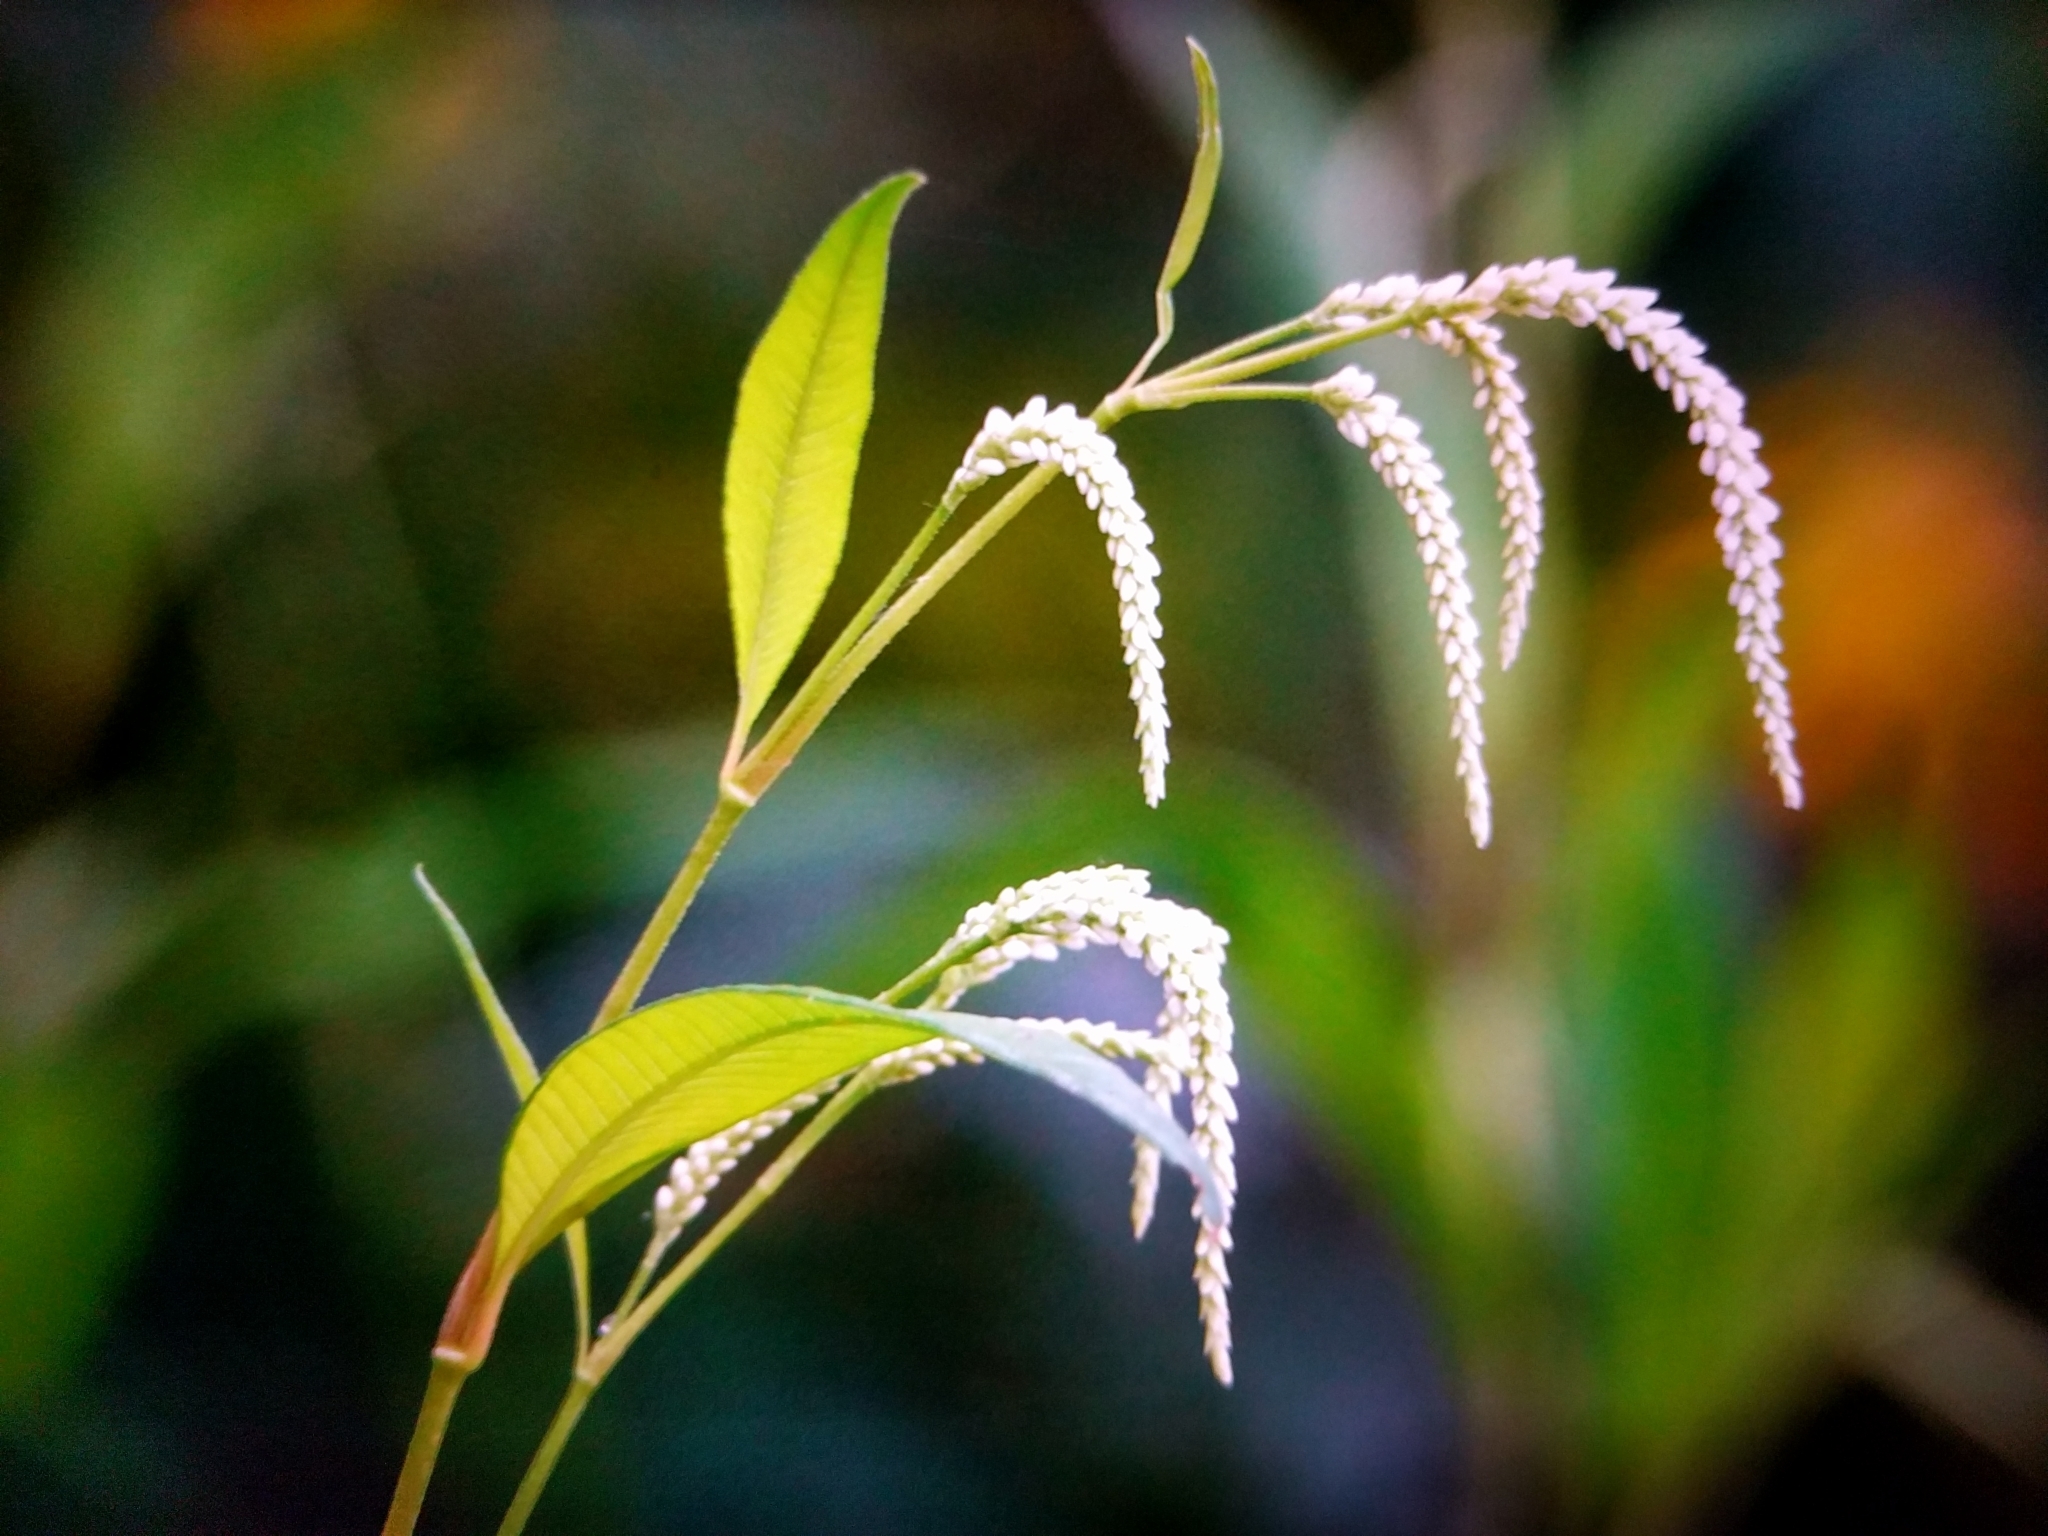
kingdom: Plantae
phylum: Tracheophyta
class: Magnoliopsida
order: Caryophyllales
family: Polygonaceae
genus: Persicaria
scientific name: Persicaria lapathifolia
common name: Curlytop knotweed
